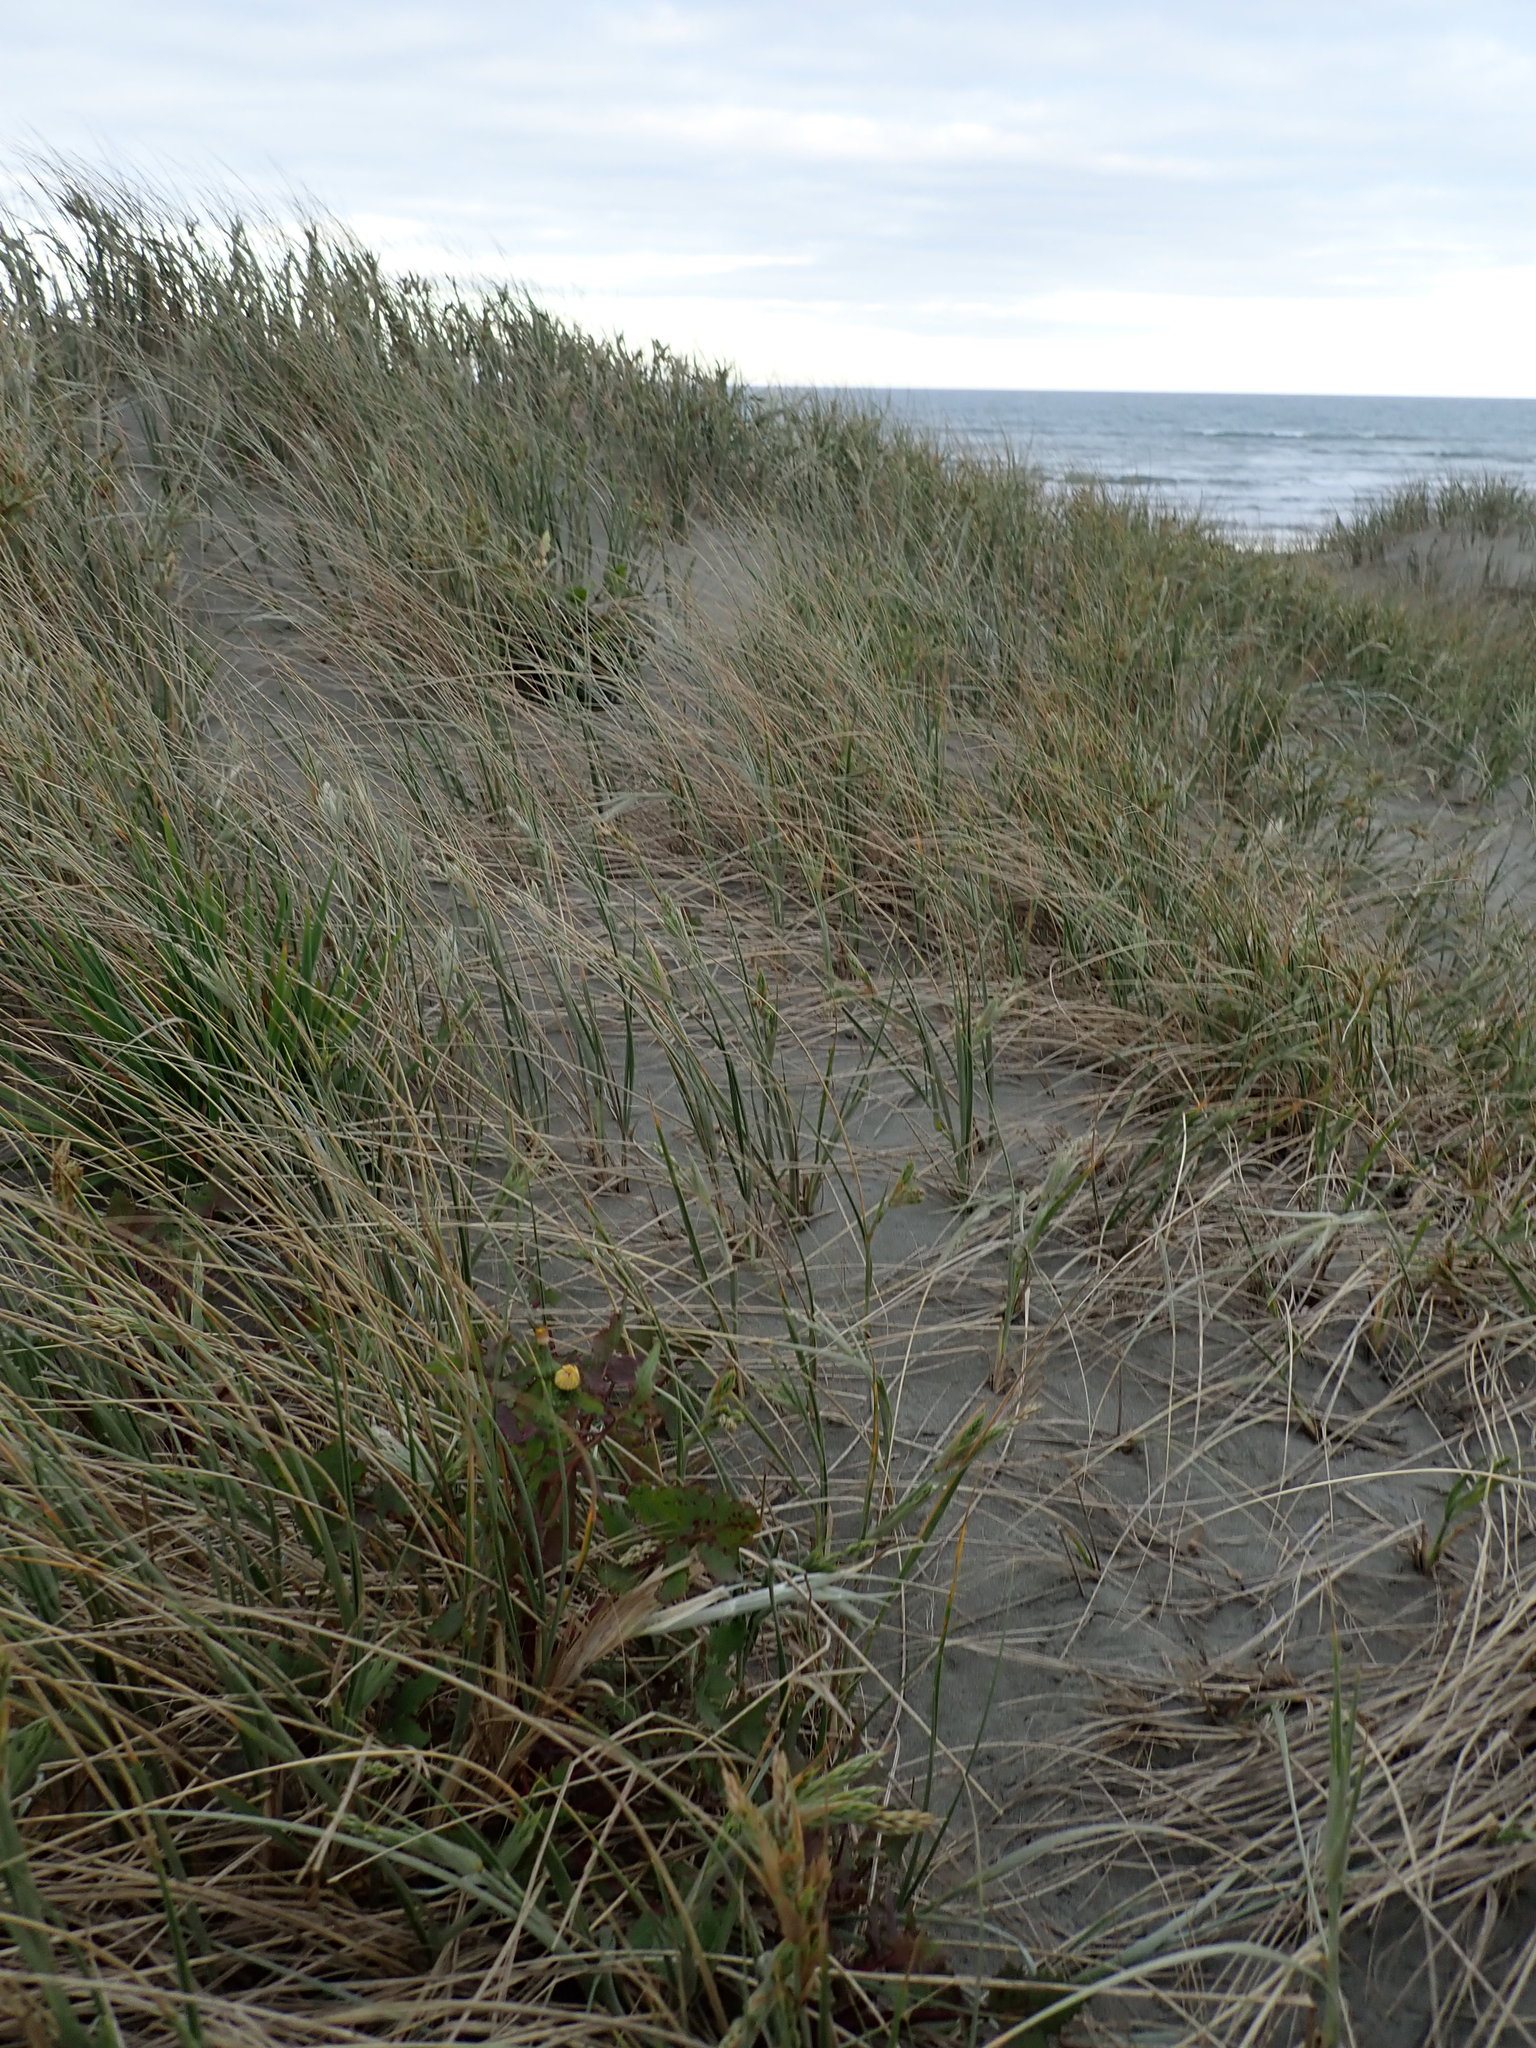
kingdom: Plantae
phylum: Tracheophyta
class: Magnoliopsida
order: Asterales
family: Asteraceae
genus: Sonchus
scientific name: Sonchus oleraceus
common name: Common sowthistle
